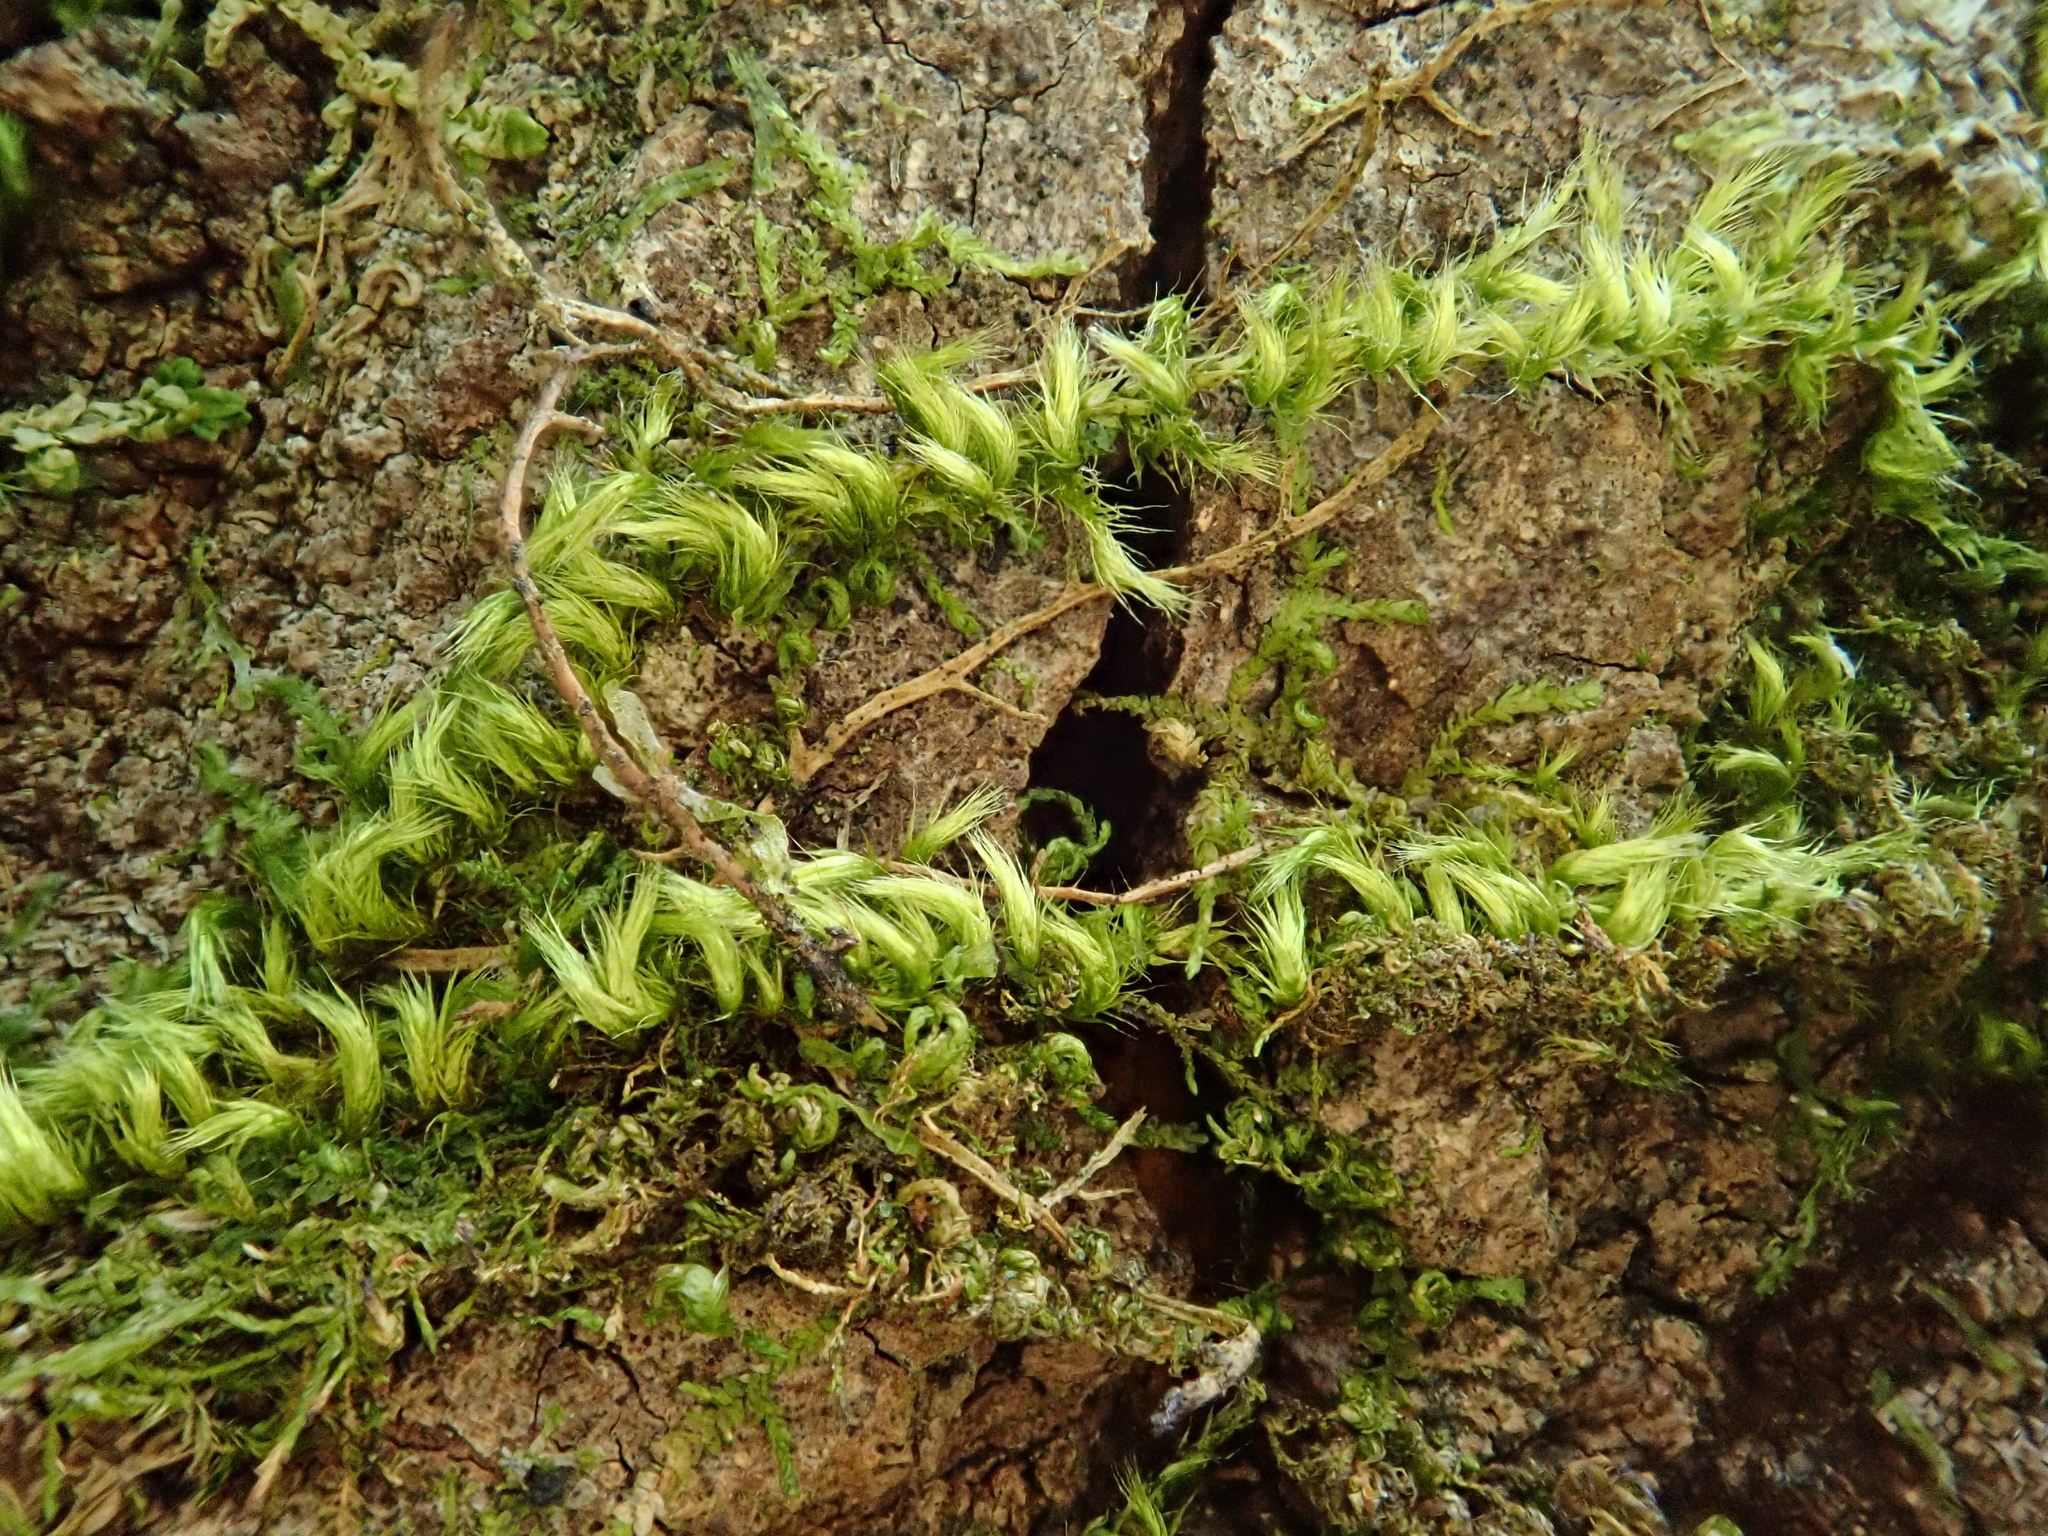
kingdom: Plantae
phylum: Bryophyta
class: Bryopsida
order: Hypnales
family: Brachytheciaceae
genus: Homalothecium
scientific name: Homalothecium sericeum
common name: Silky wall feather-moss
